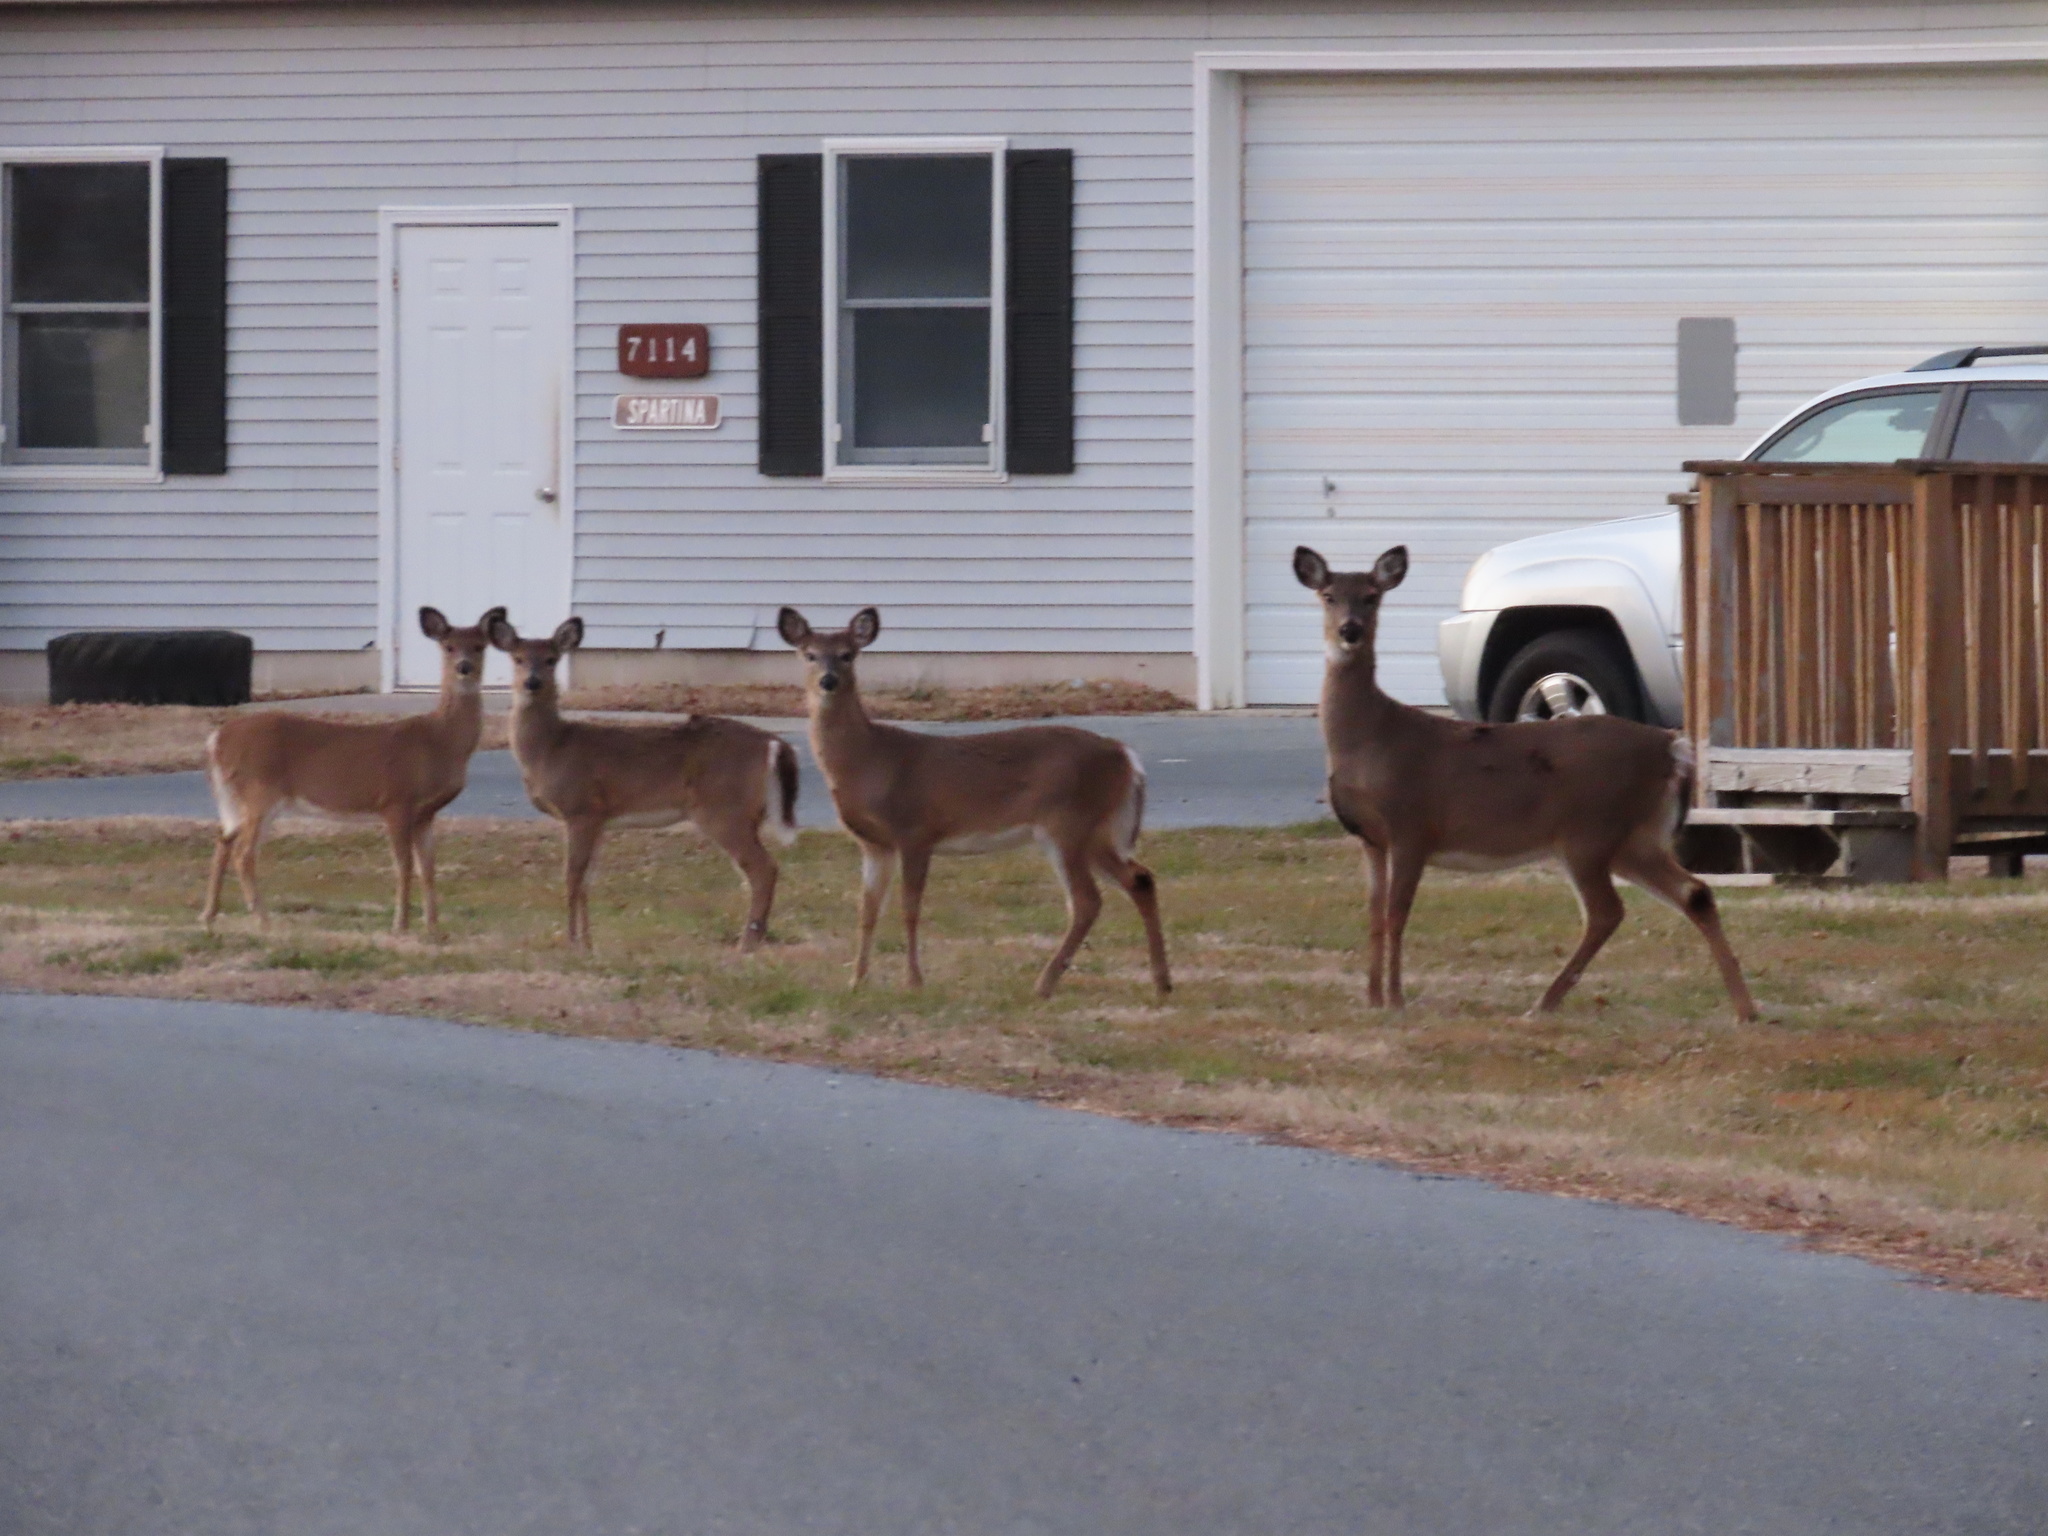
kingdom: Animalia
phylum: Chordata
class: Mammalia
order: Artiodactyla
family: Cervidae
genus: Odocoileus
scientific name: Odocoileus virginianus
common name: White-tailed deer
